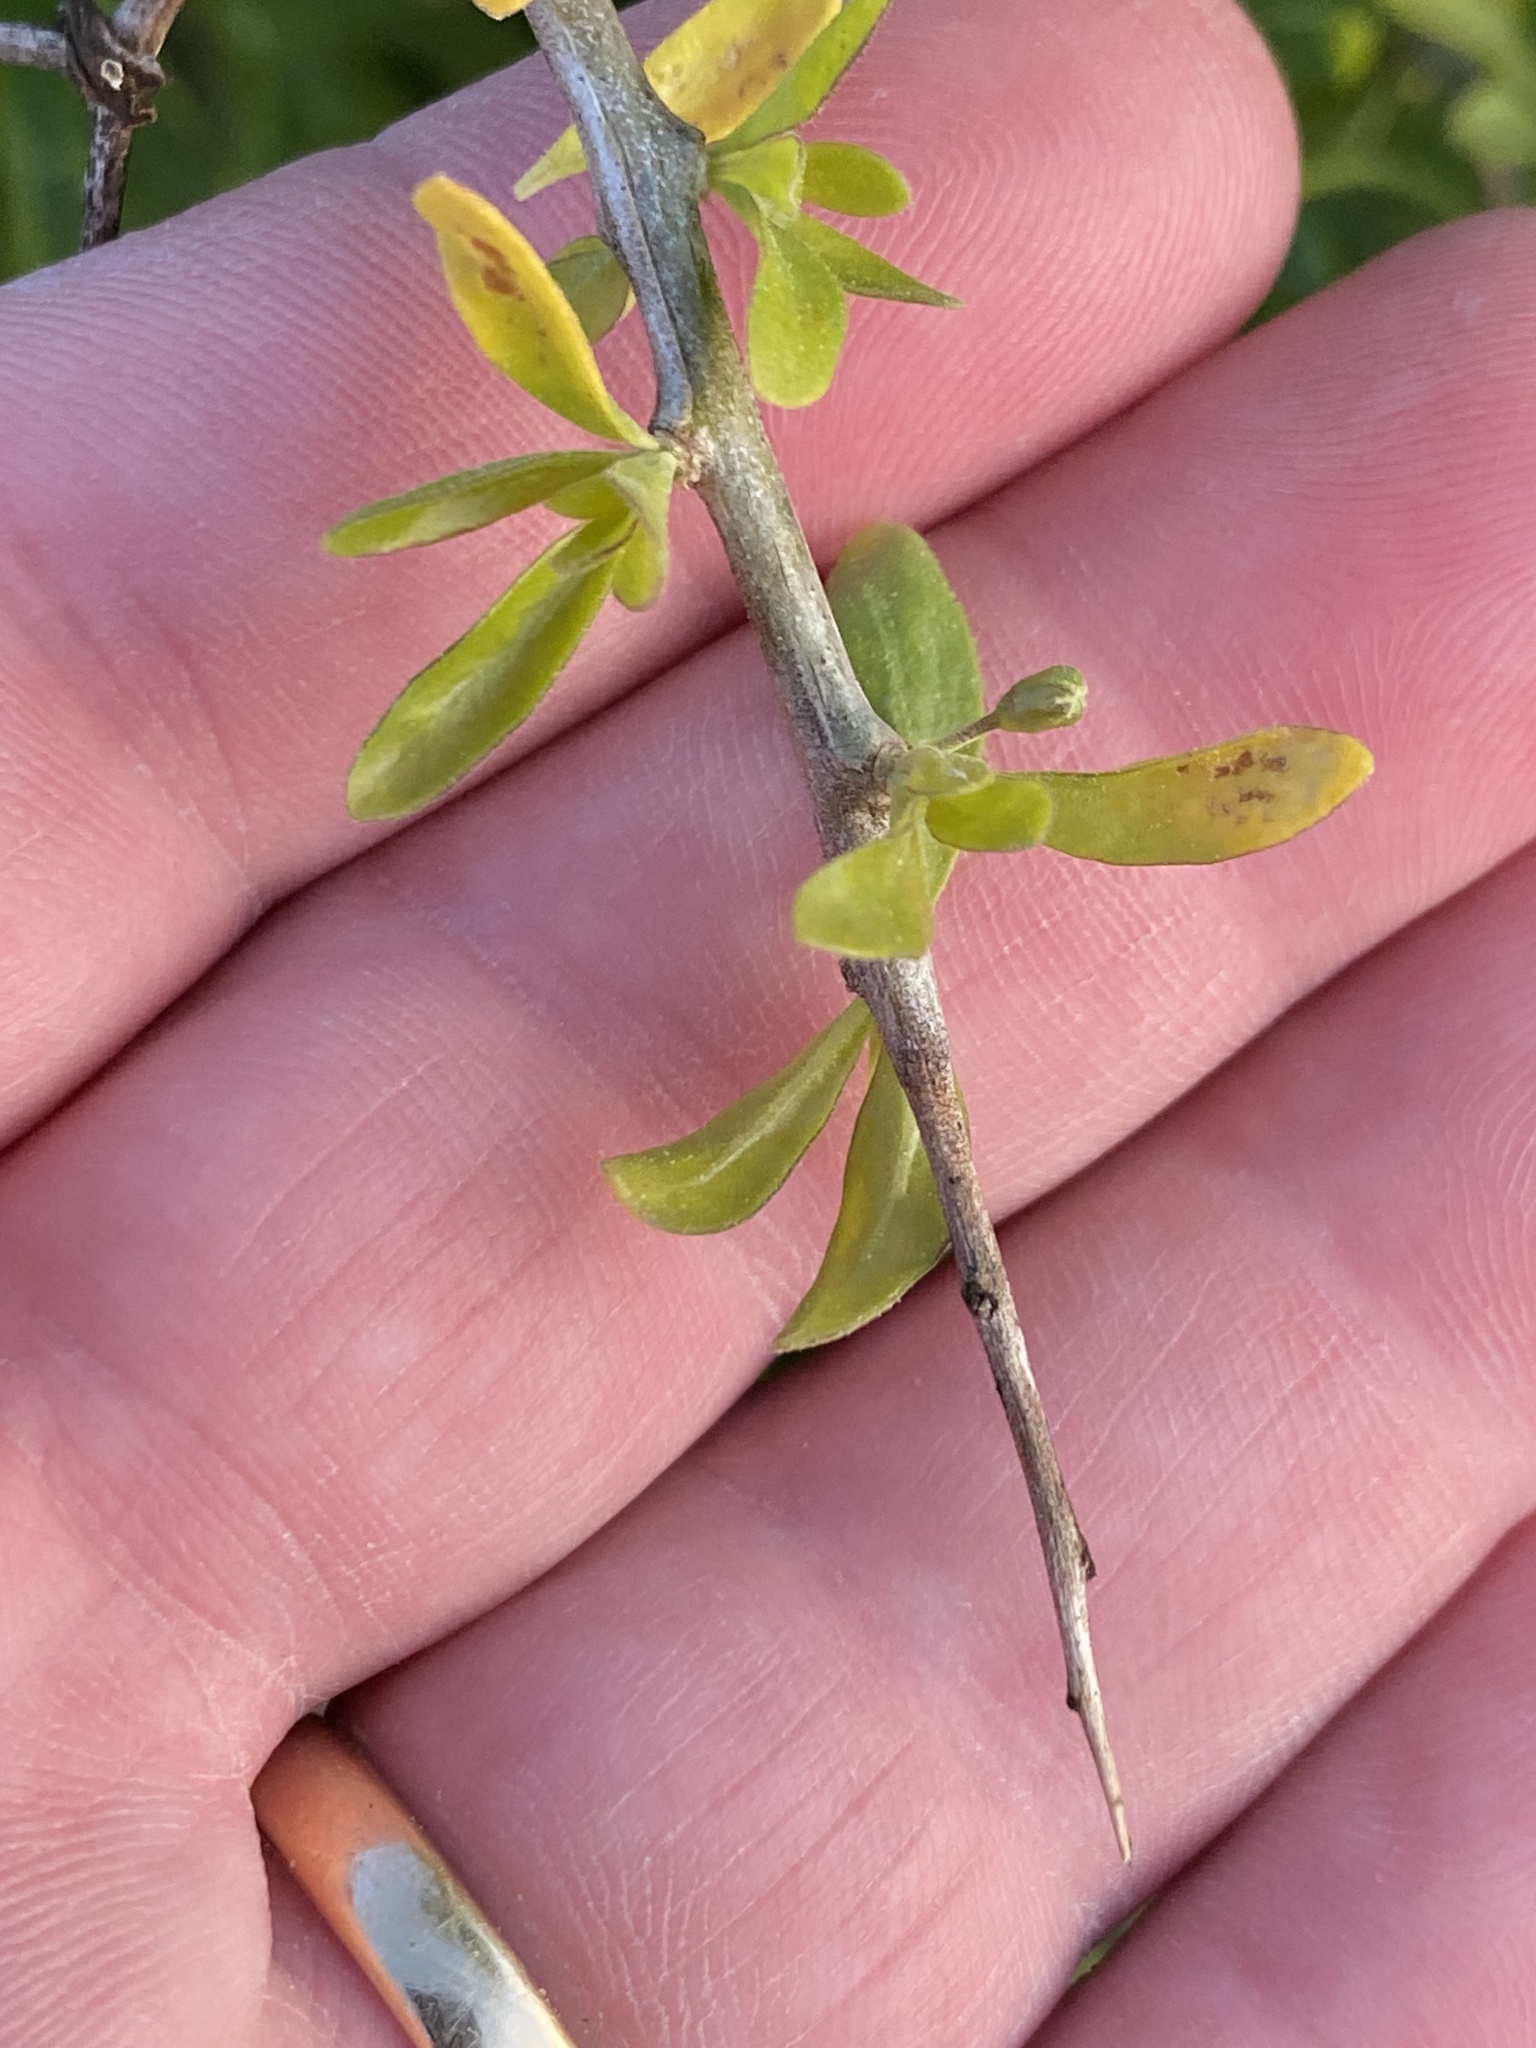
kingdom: Plantae
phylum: Tracheophyta
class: Magnoliopsida
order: Solanales
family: Solanaceae
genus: Lycium
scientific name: Lycium ferocissimum
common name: African boxthorn
